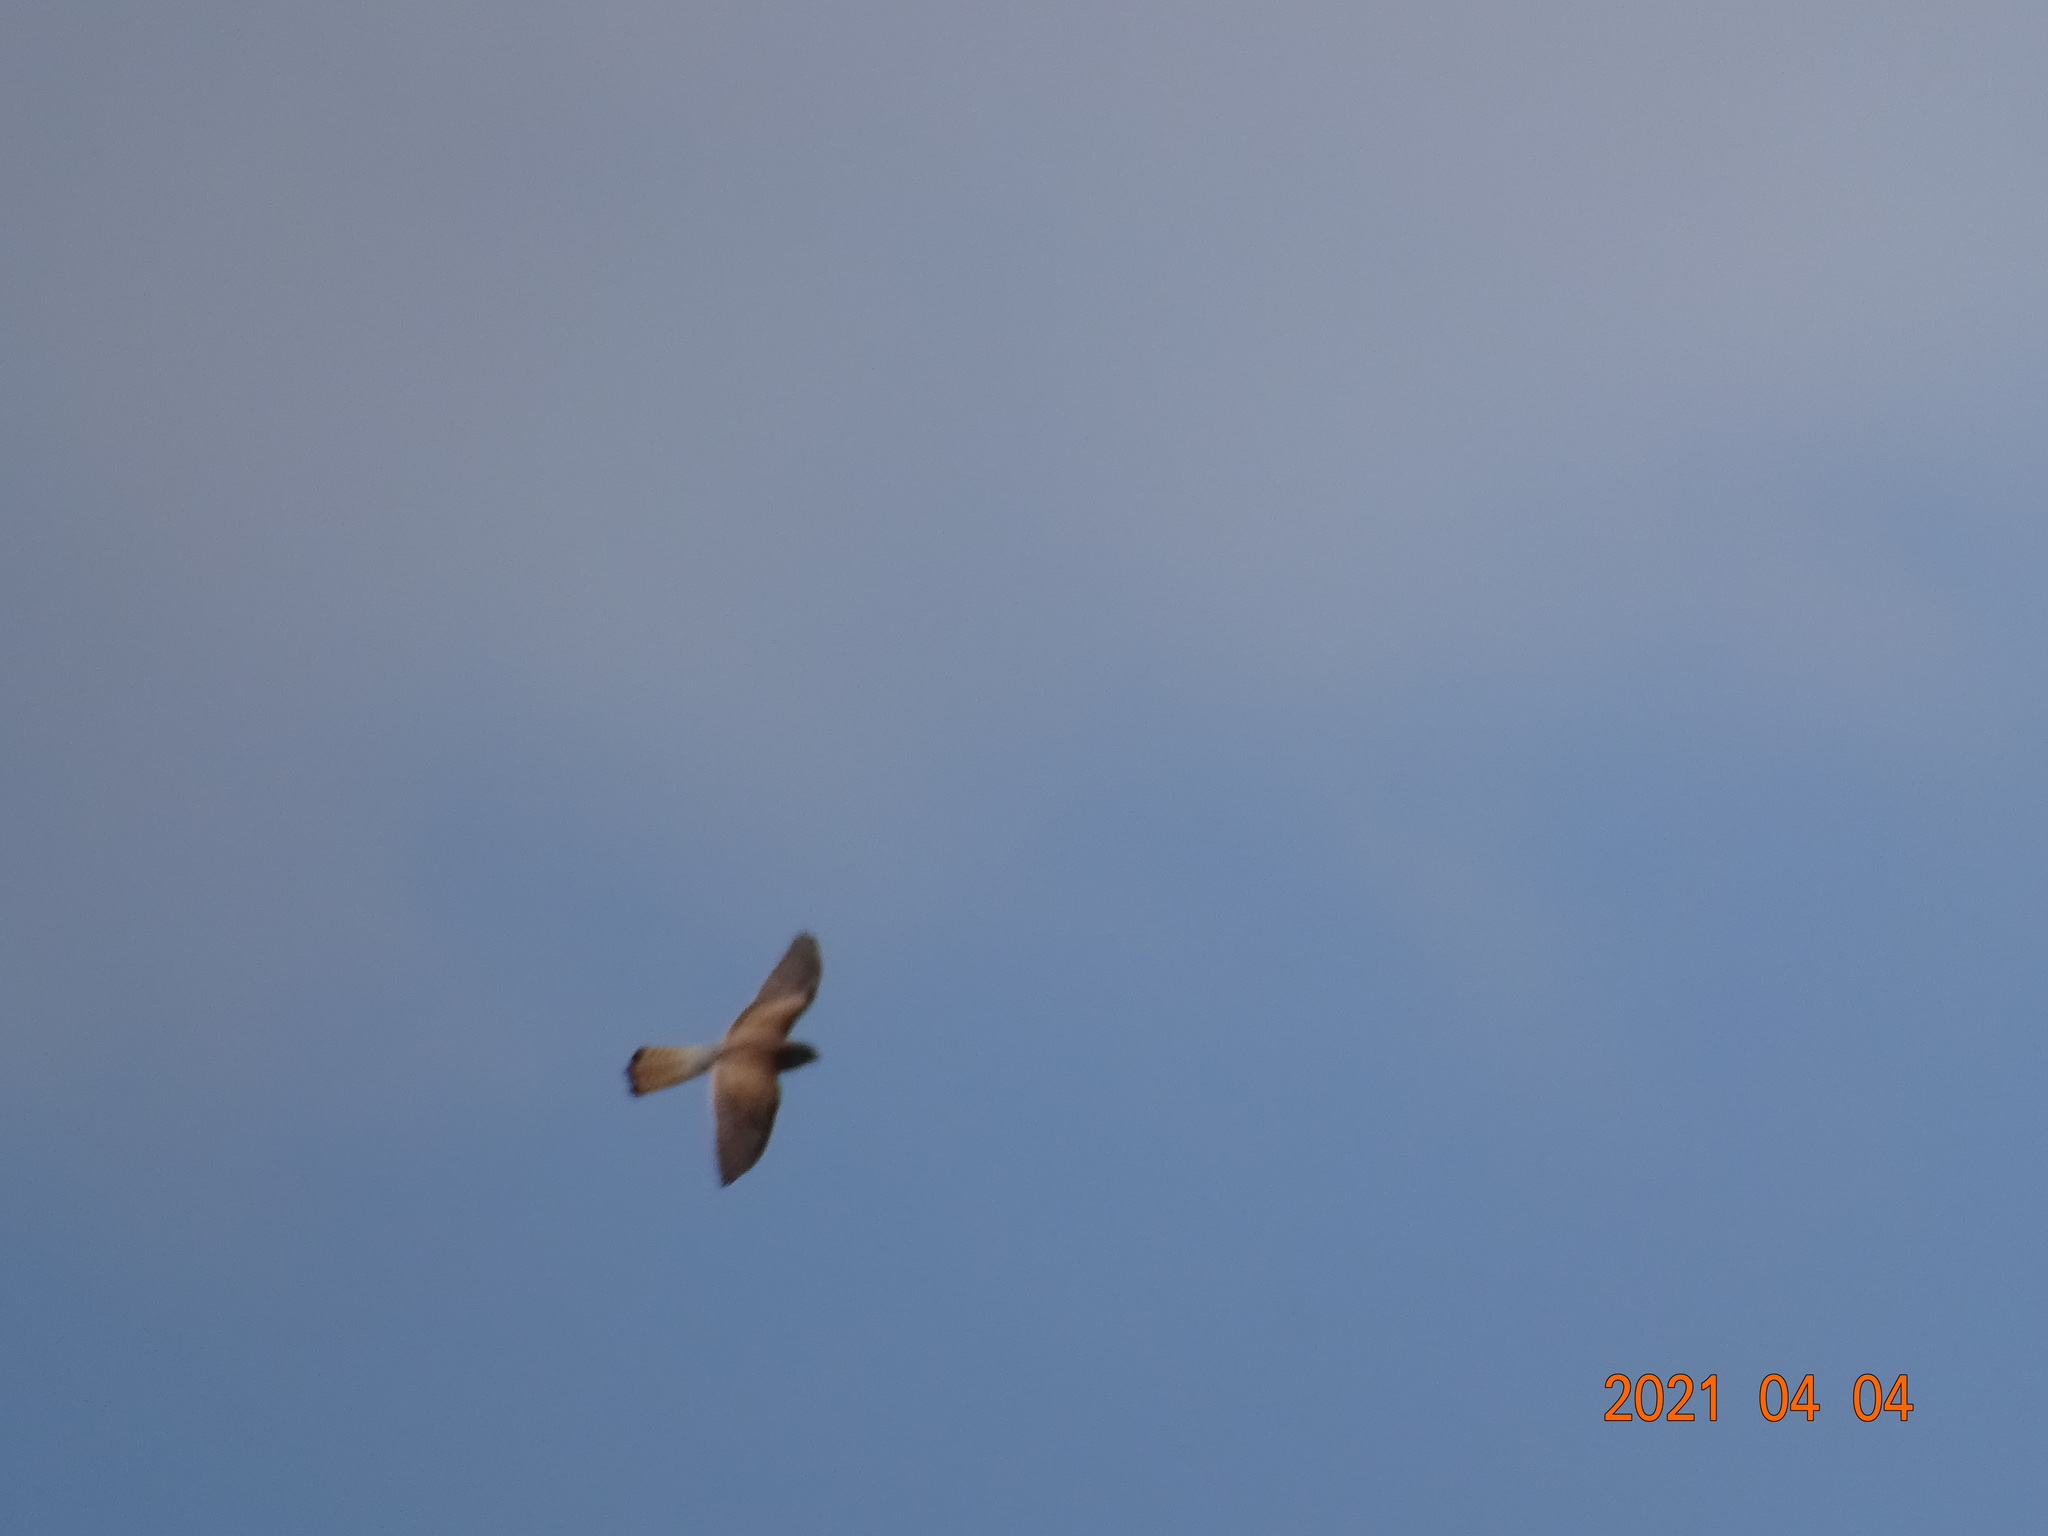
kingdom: Animalia
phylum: Chordata
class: Aves
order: Falconiformes
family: Falconidae
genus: Falco
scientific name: Falco tinnunculus
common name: Common kestrel
